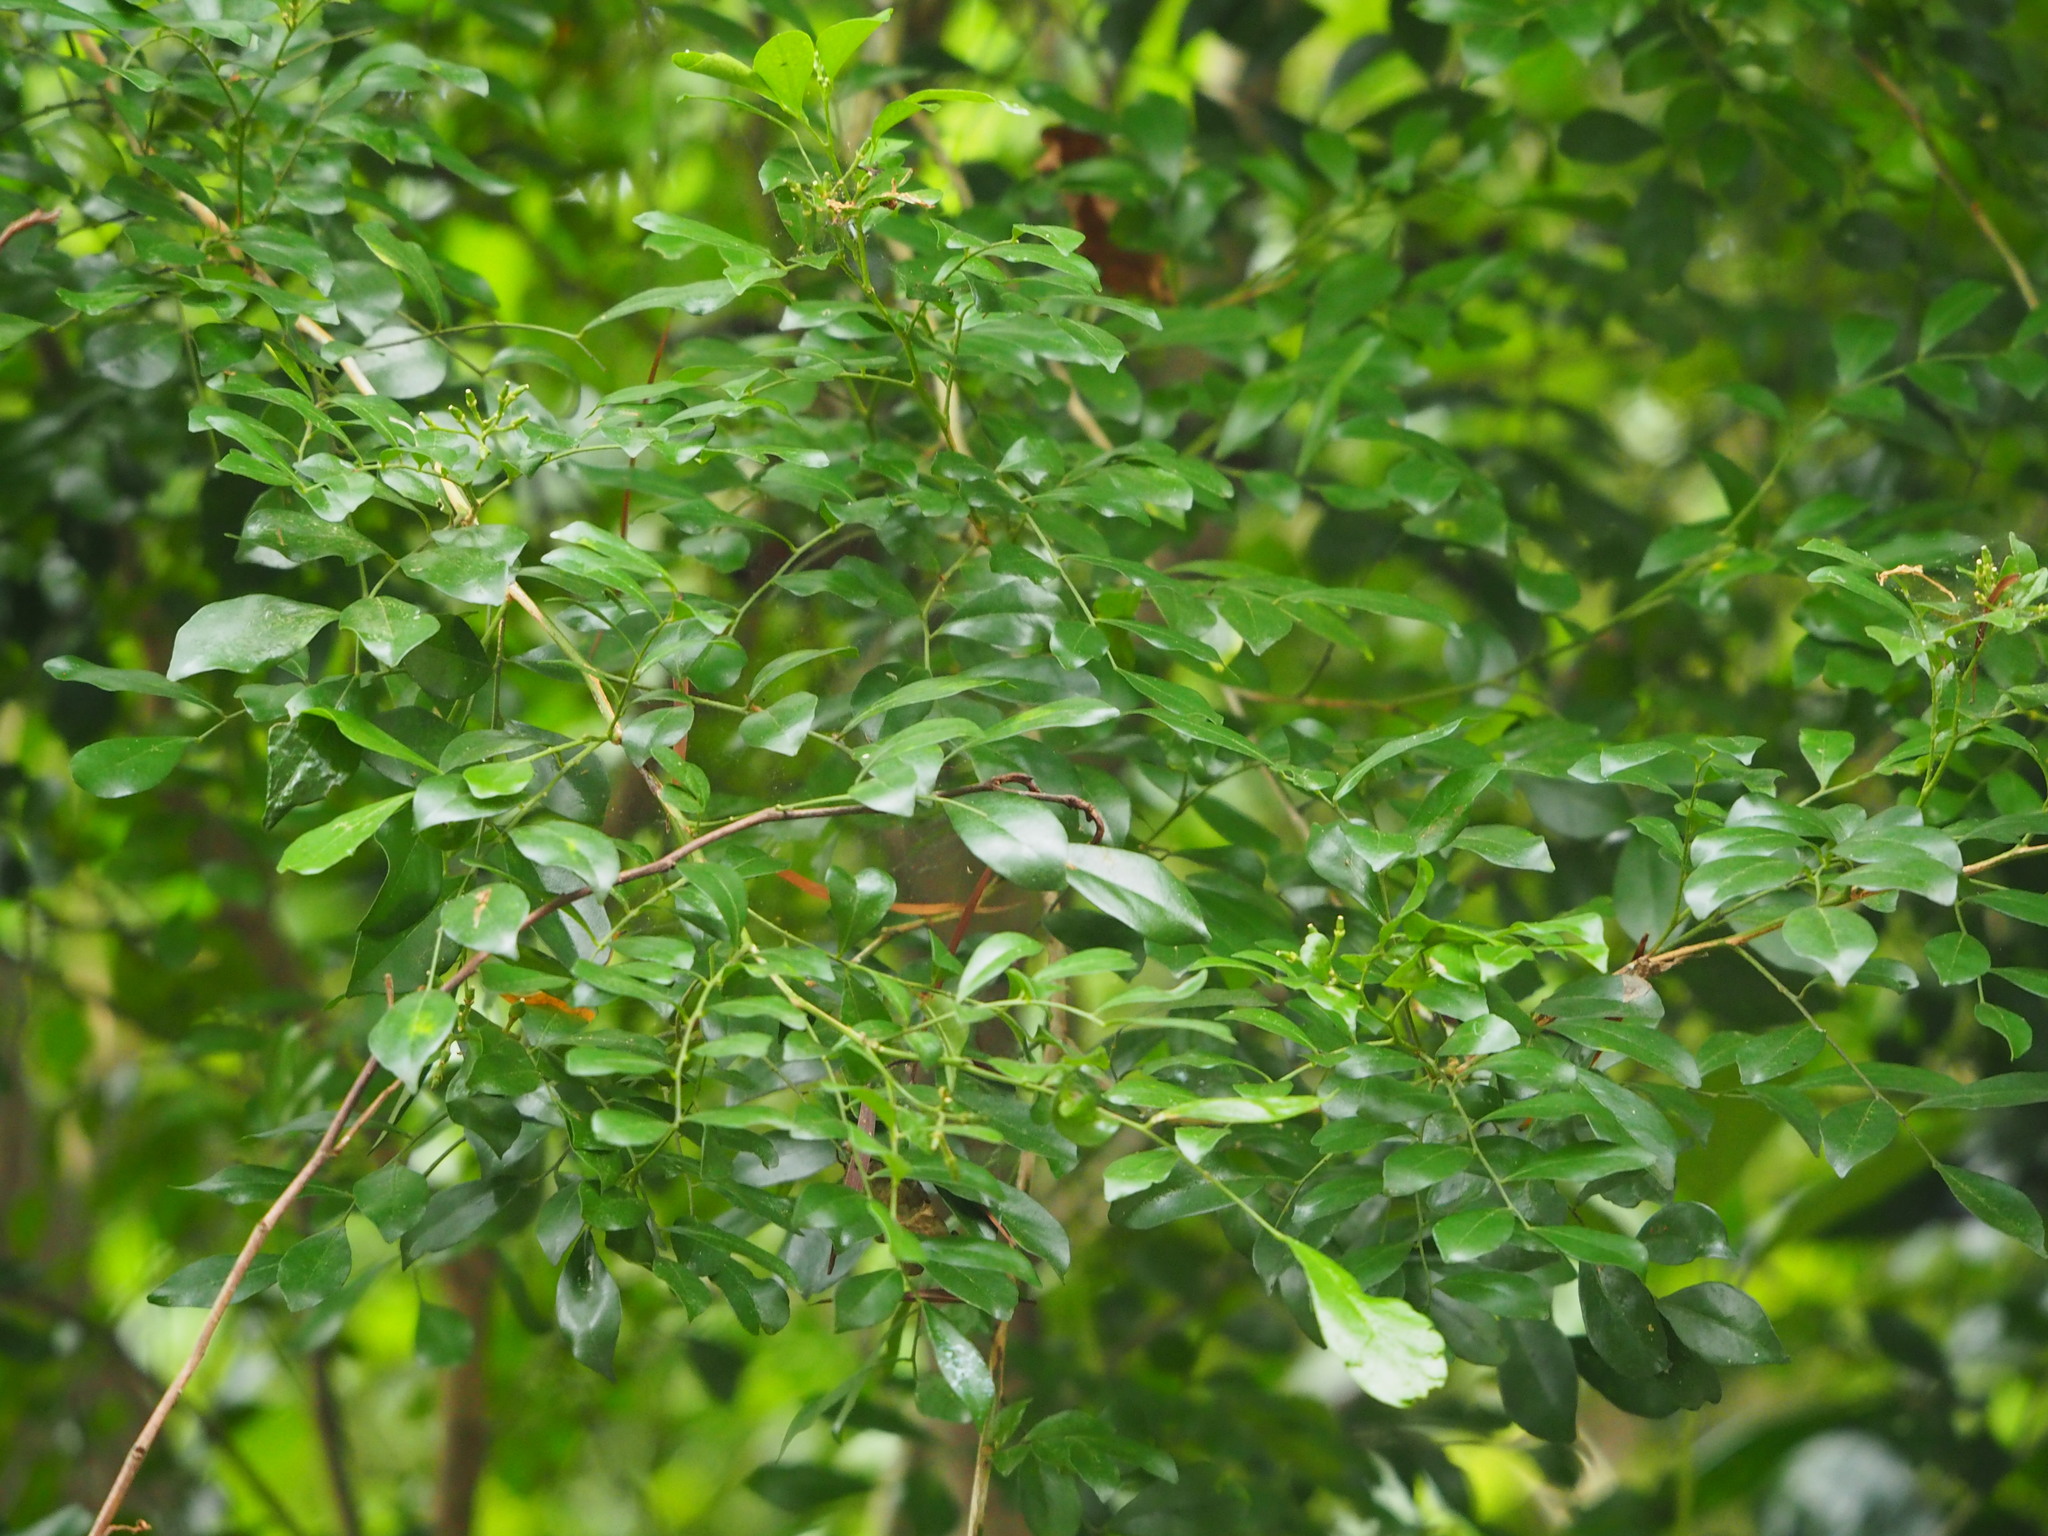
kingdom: Plantae
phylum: Tracheophyta
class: Magnoliopsida
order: Sapindales
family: Rutaceae
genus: Murraya
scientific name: Murraya paniculata
